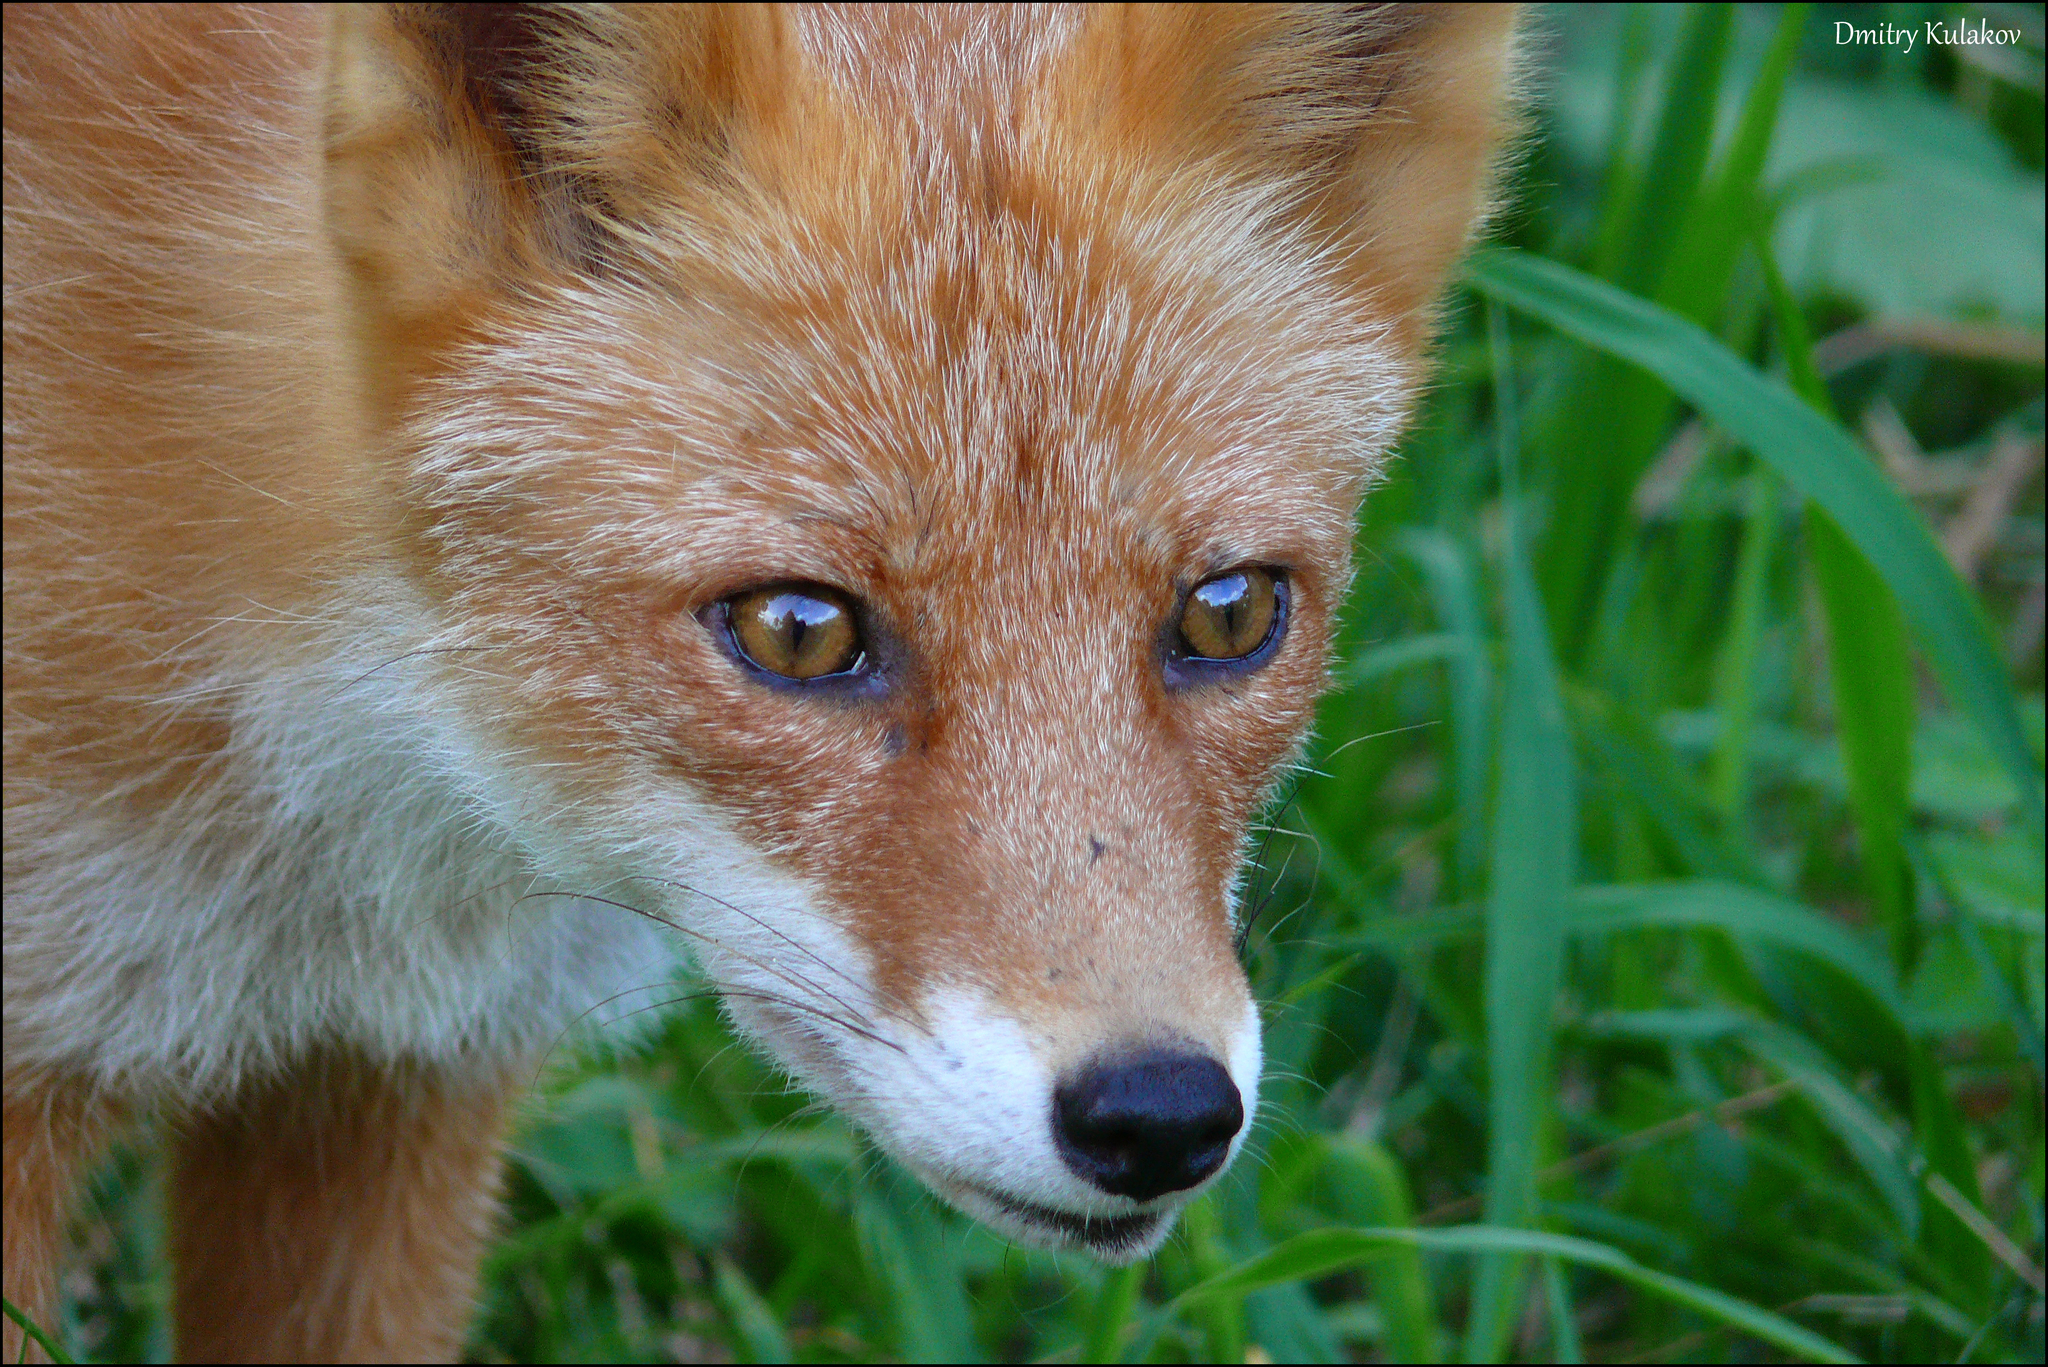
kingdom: Animalia
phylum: Chordata
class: Mammalia
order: Carnivora
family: Canidae
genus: Vulpes
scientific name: Vulpes vulpes
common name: Red fox
